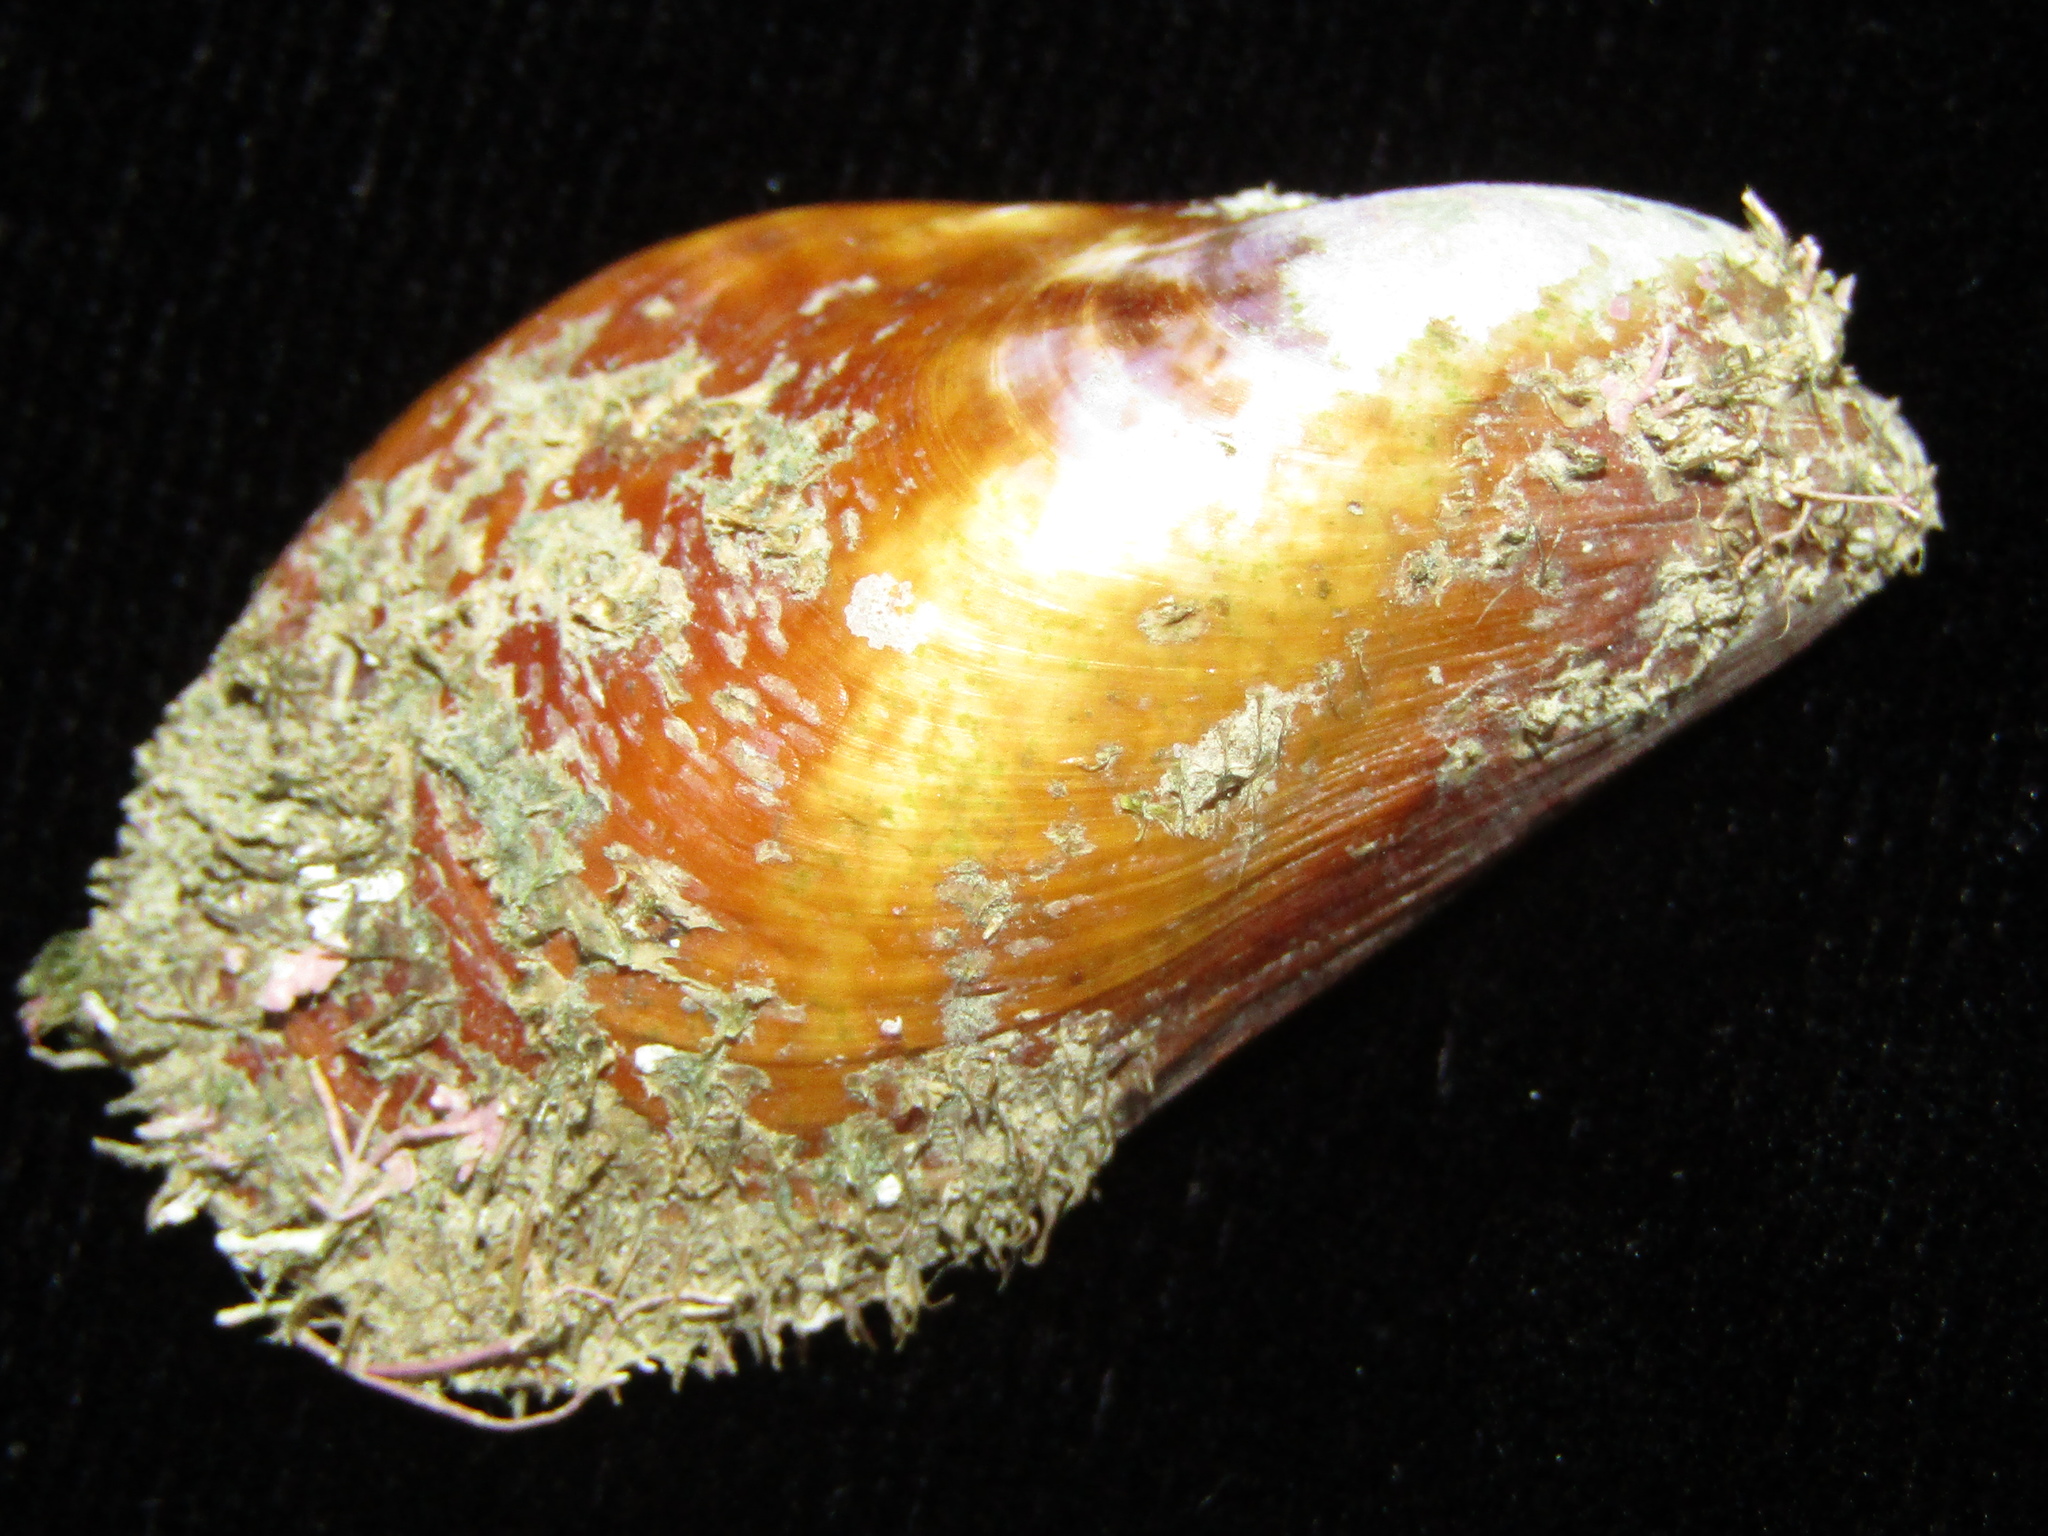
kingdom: Animalia
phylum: Mollusca
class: Bivalvia
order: Mytilida
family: Mytilidae
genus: Modiolus
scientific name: Modiolus areolatus
